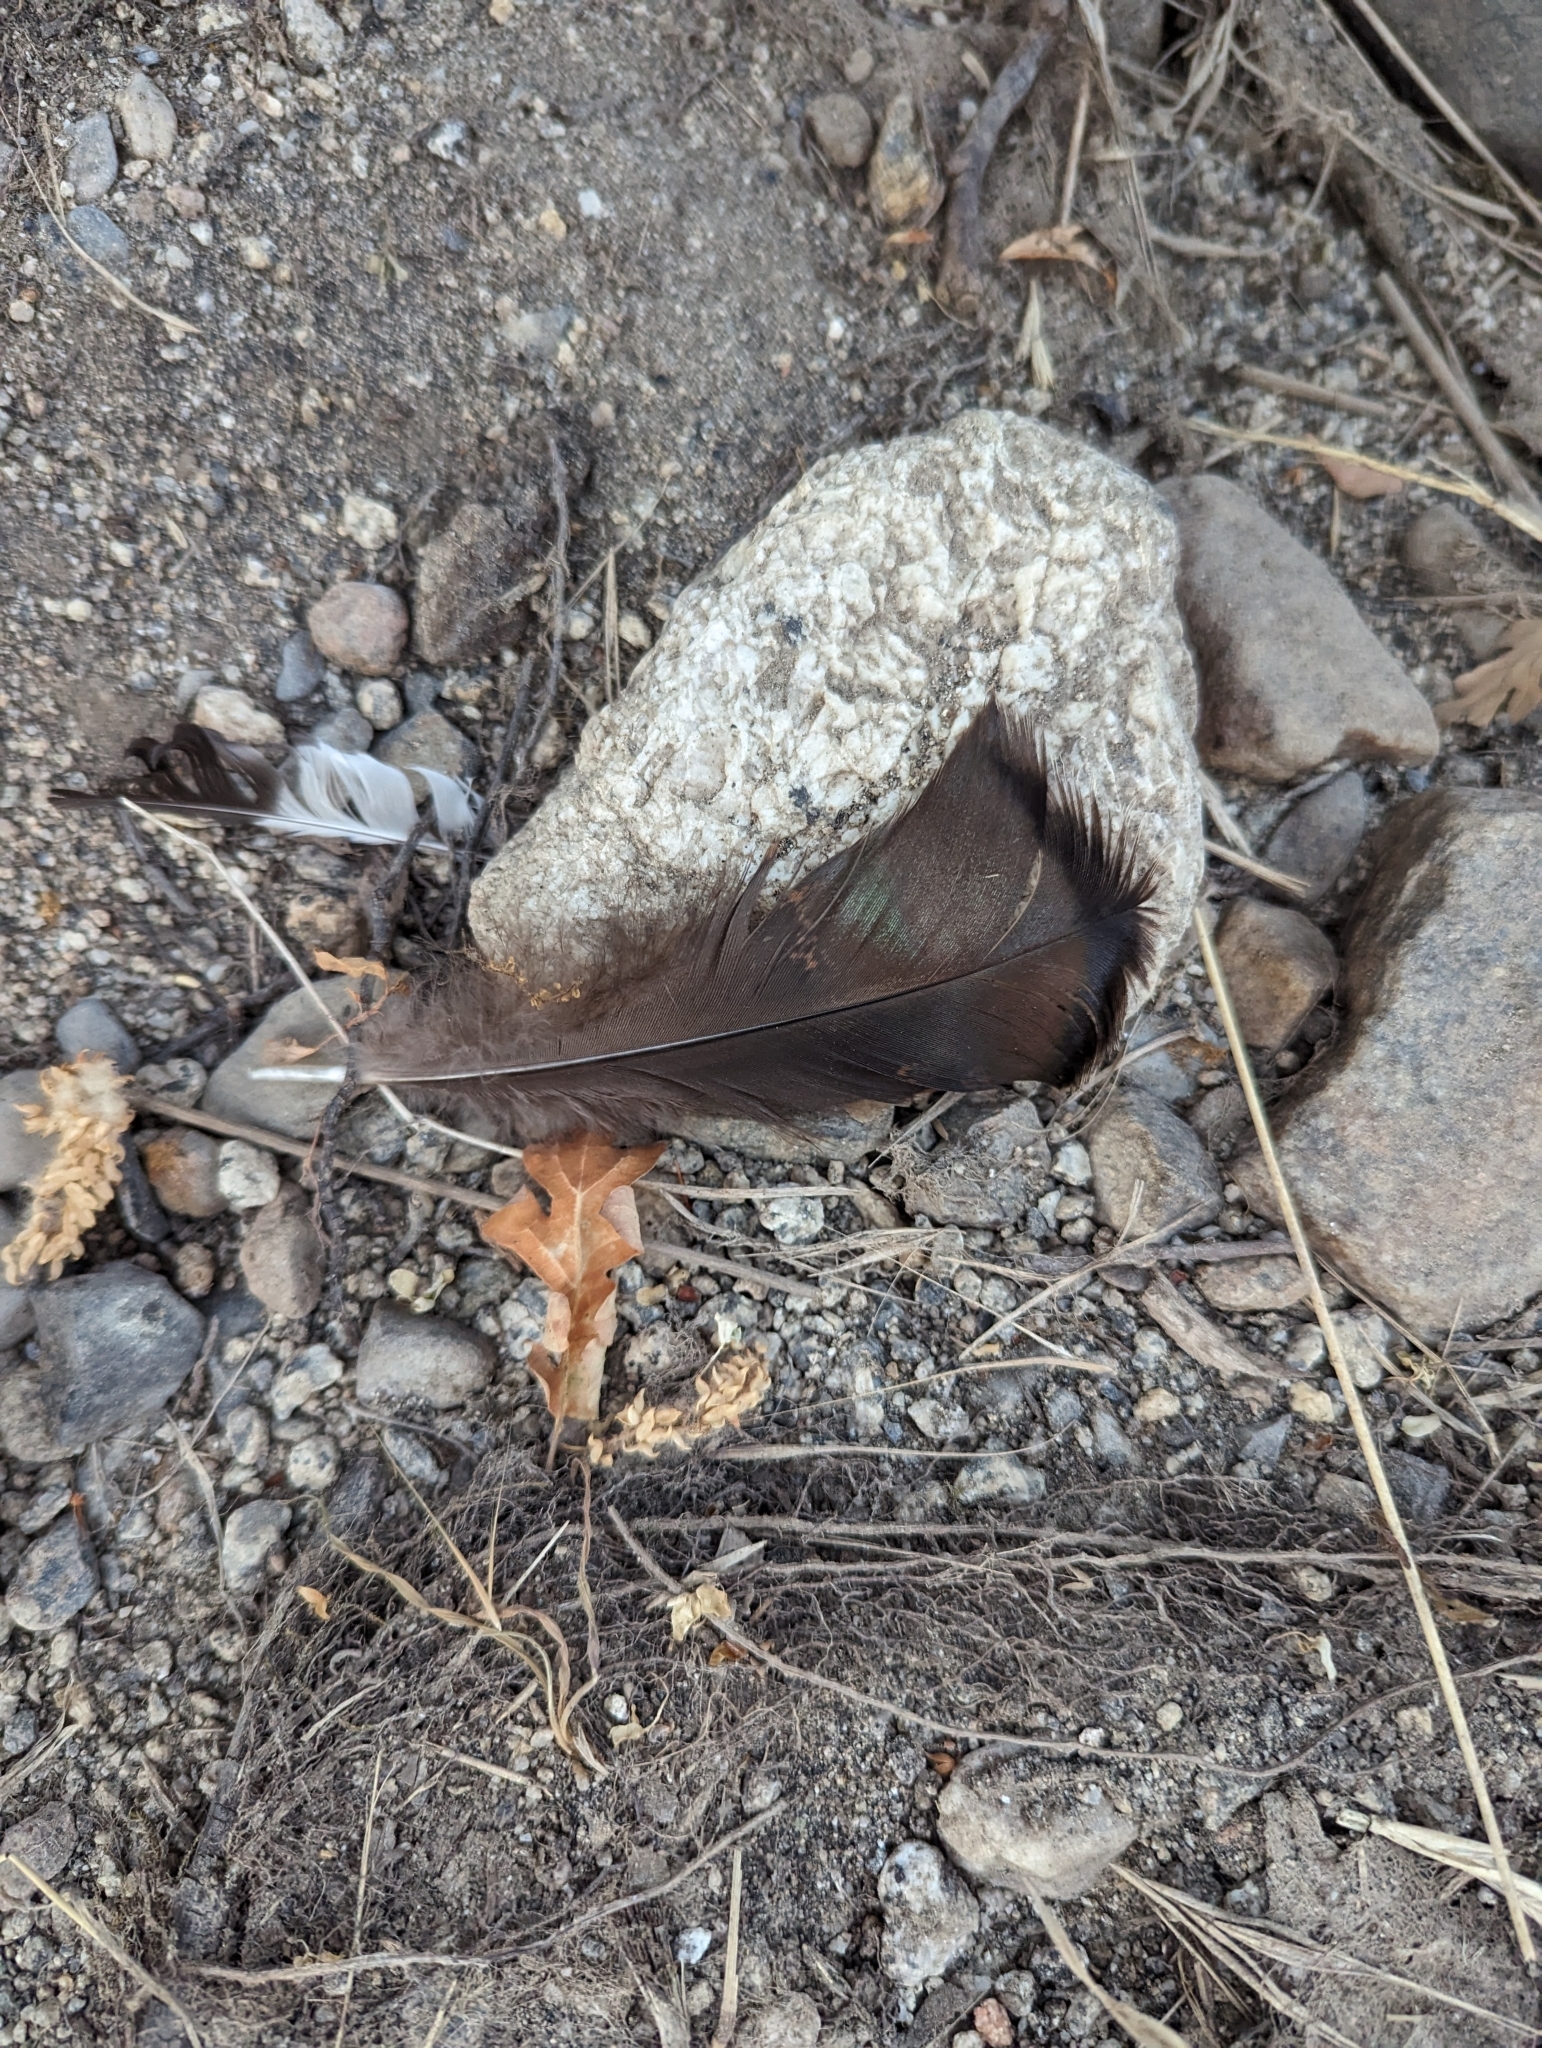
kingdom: Animalia
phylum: Chordata
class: Aves
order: Galliformes
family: Phasianidae
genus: Meleagris
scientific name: Meleagris gallopavo
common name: Wild turkey
